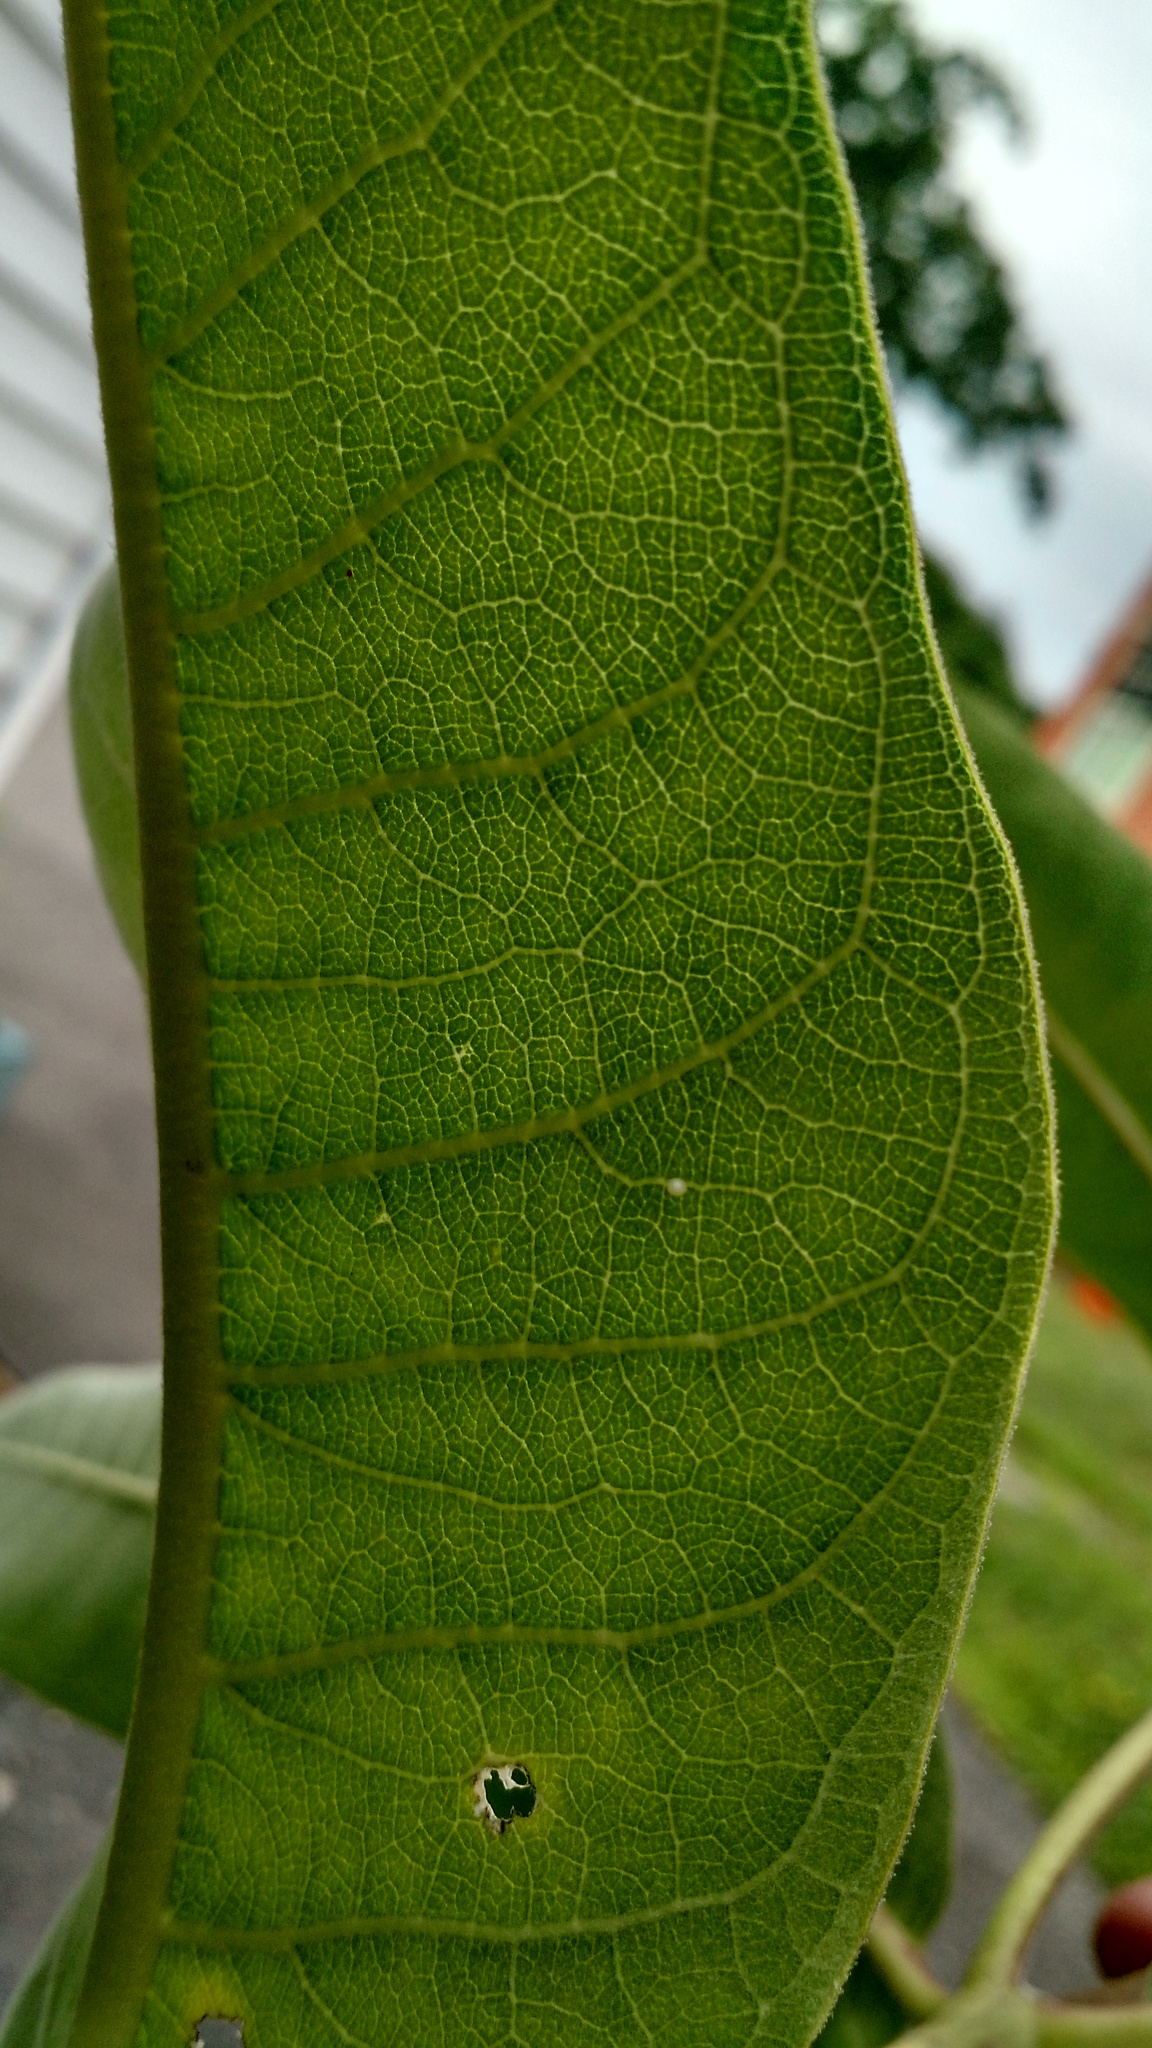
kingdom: Animalia
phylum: Arthropoda
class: Insecta
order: Lepidoptera
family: Nymphalidae
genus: Danaus
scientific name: Danaus plexippus
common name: Monarch
